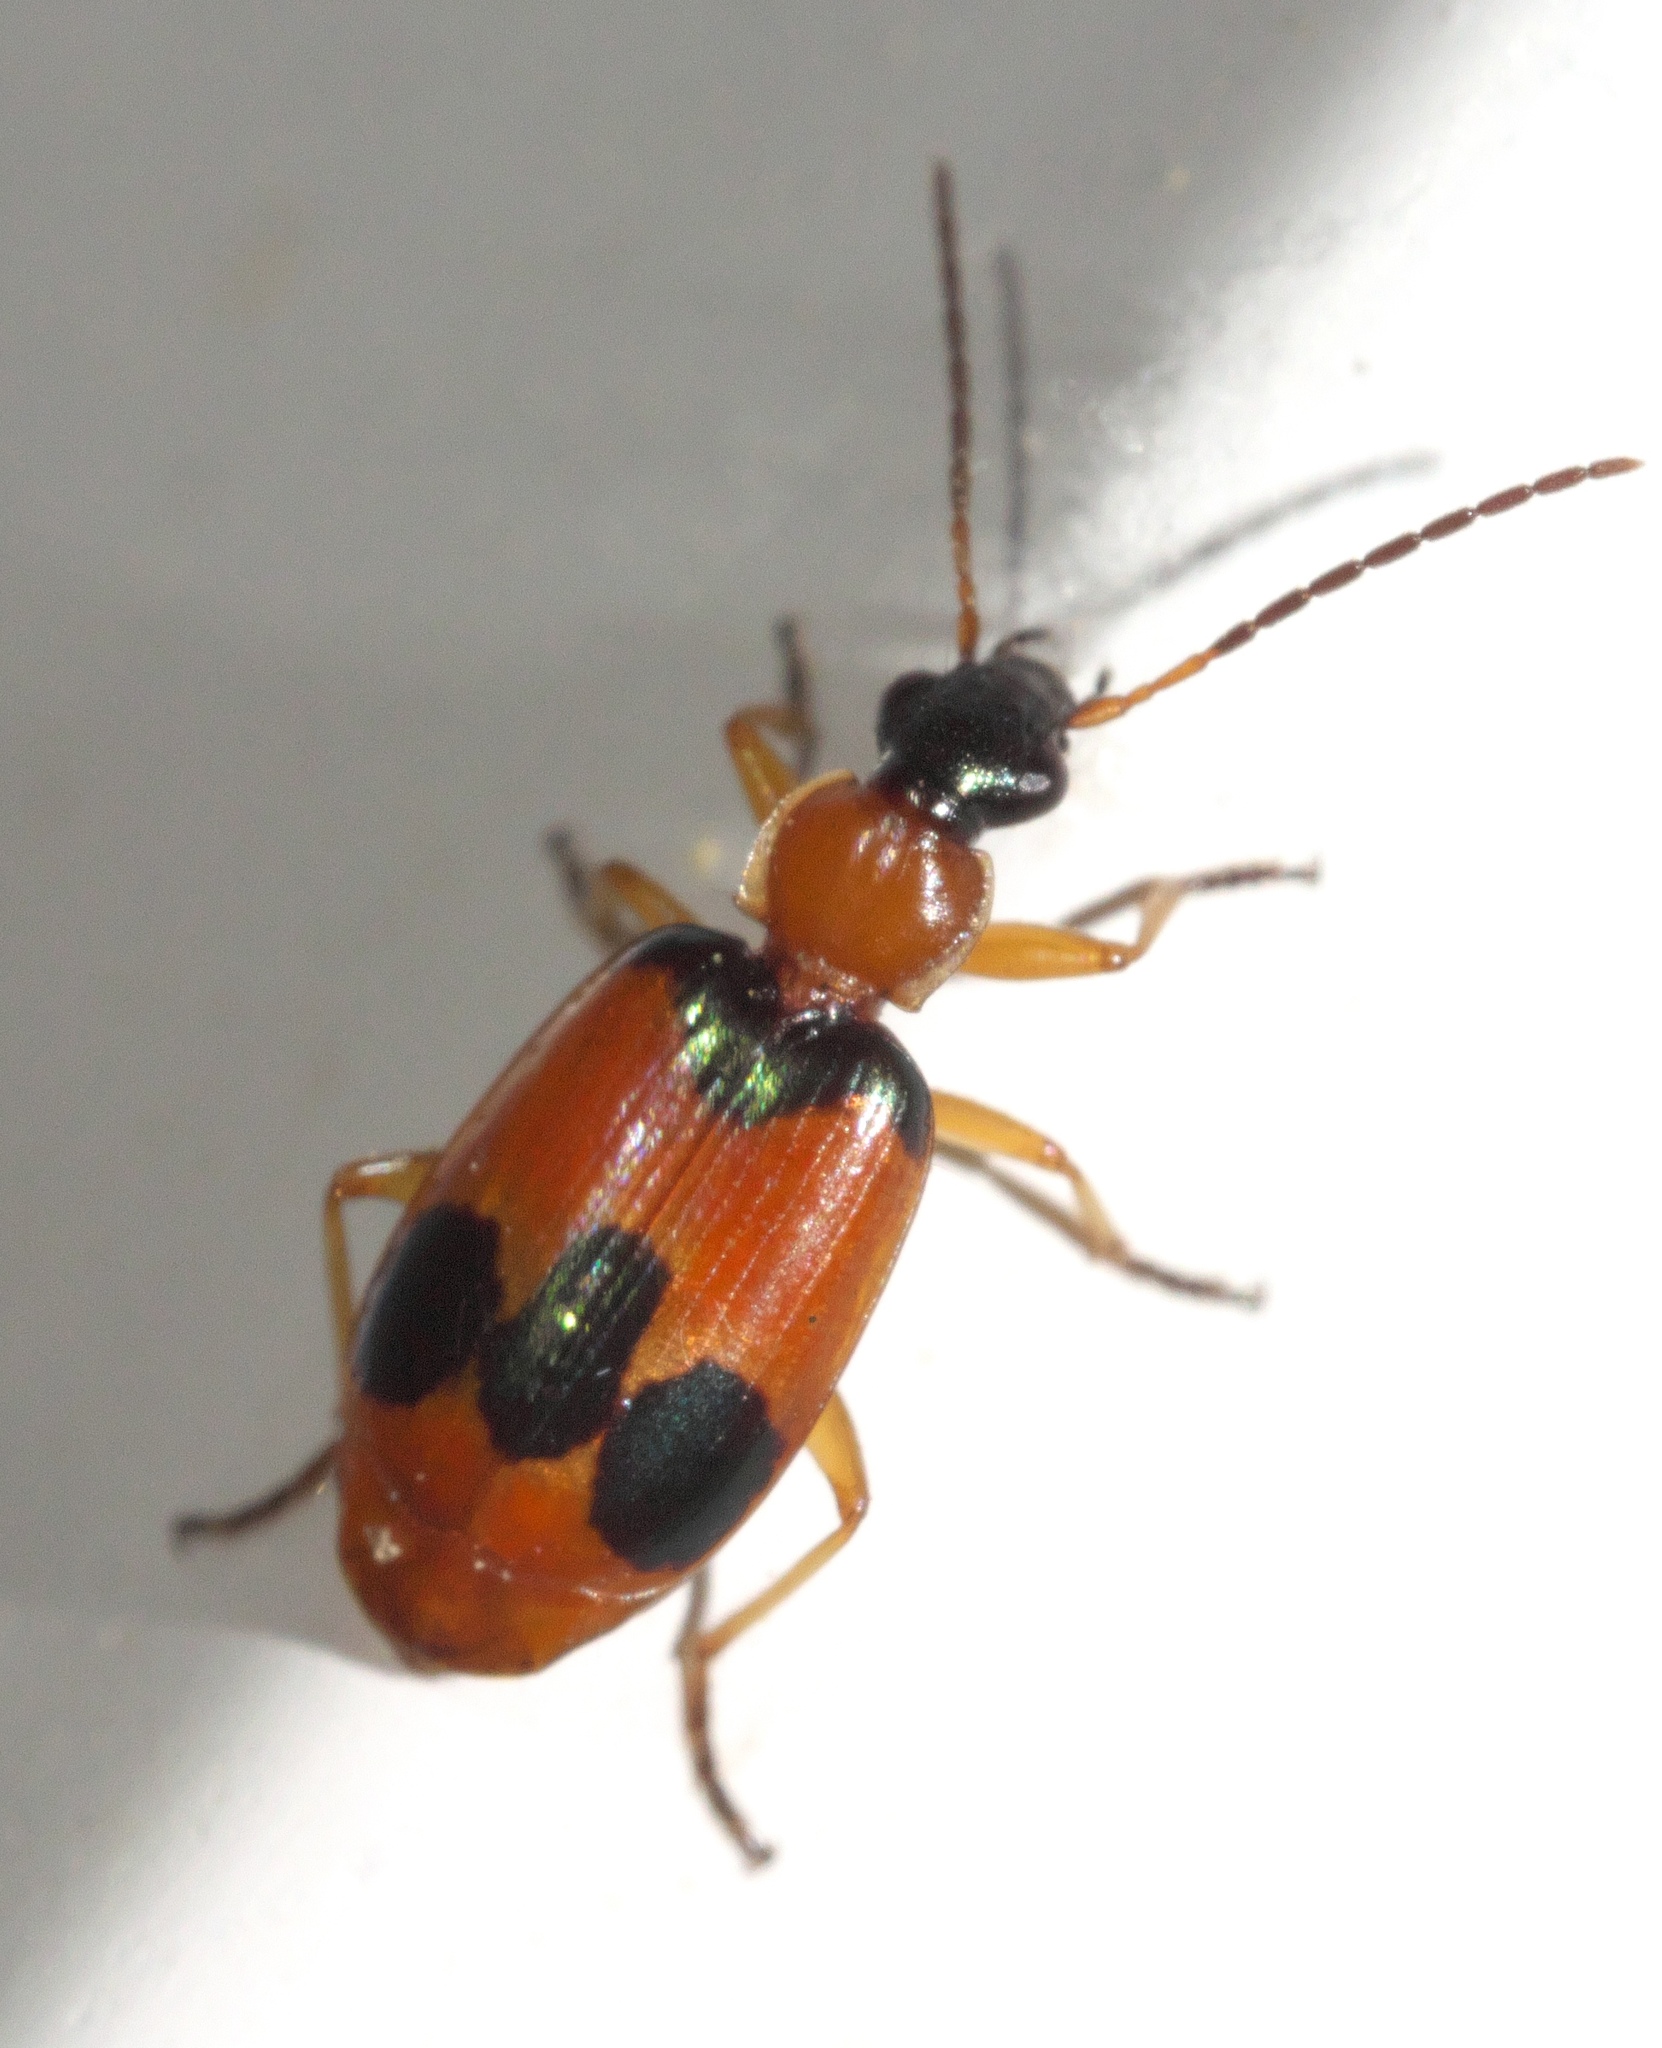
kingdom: Animalia
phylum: Arthropoda
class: Insecta
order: Coleoptera
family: Carabidae
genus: Lebia
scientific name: Lebia pulchella
